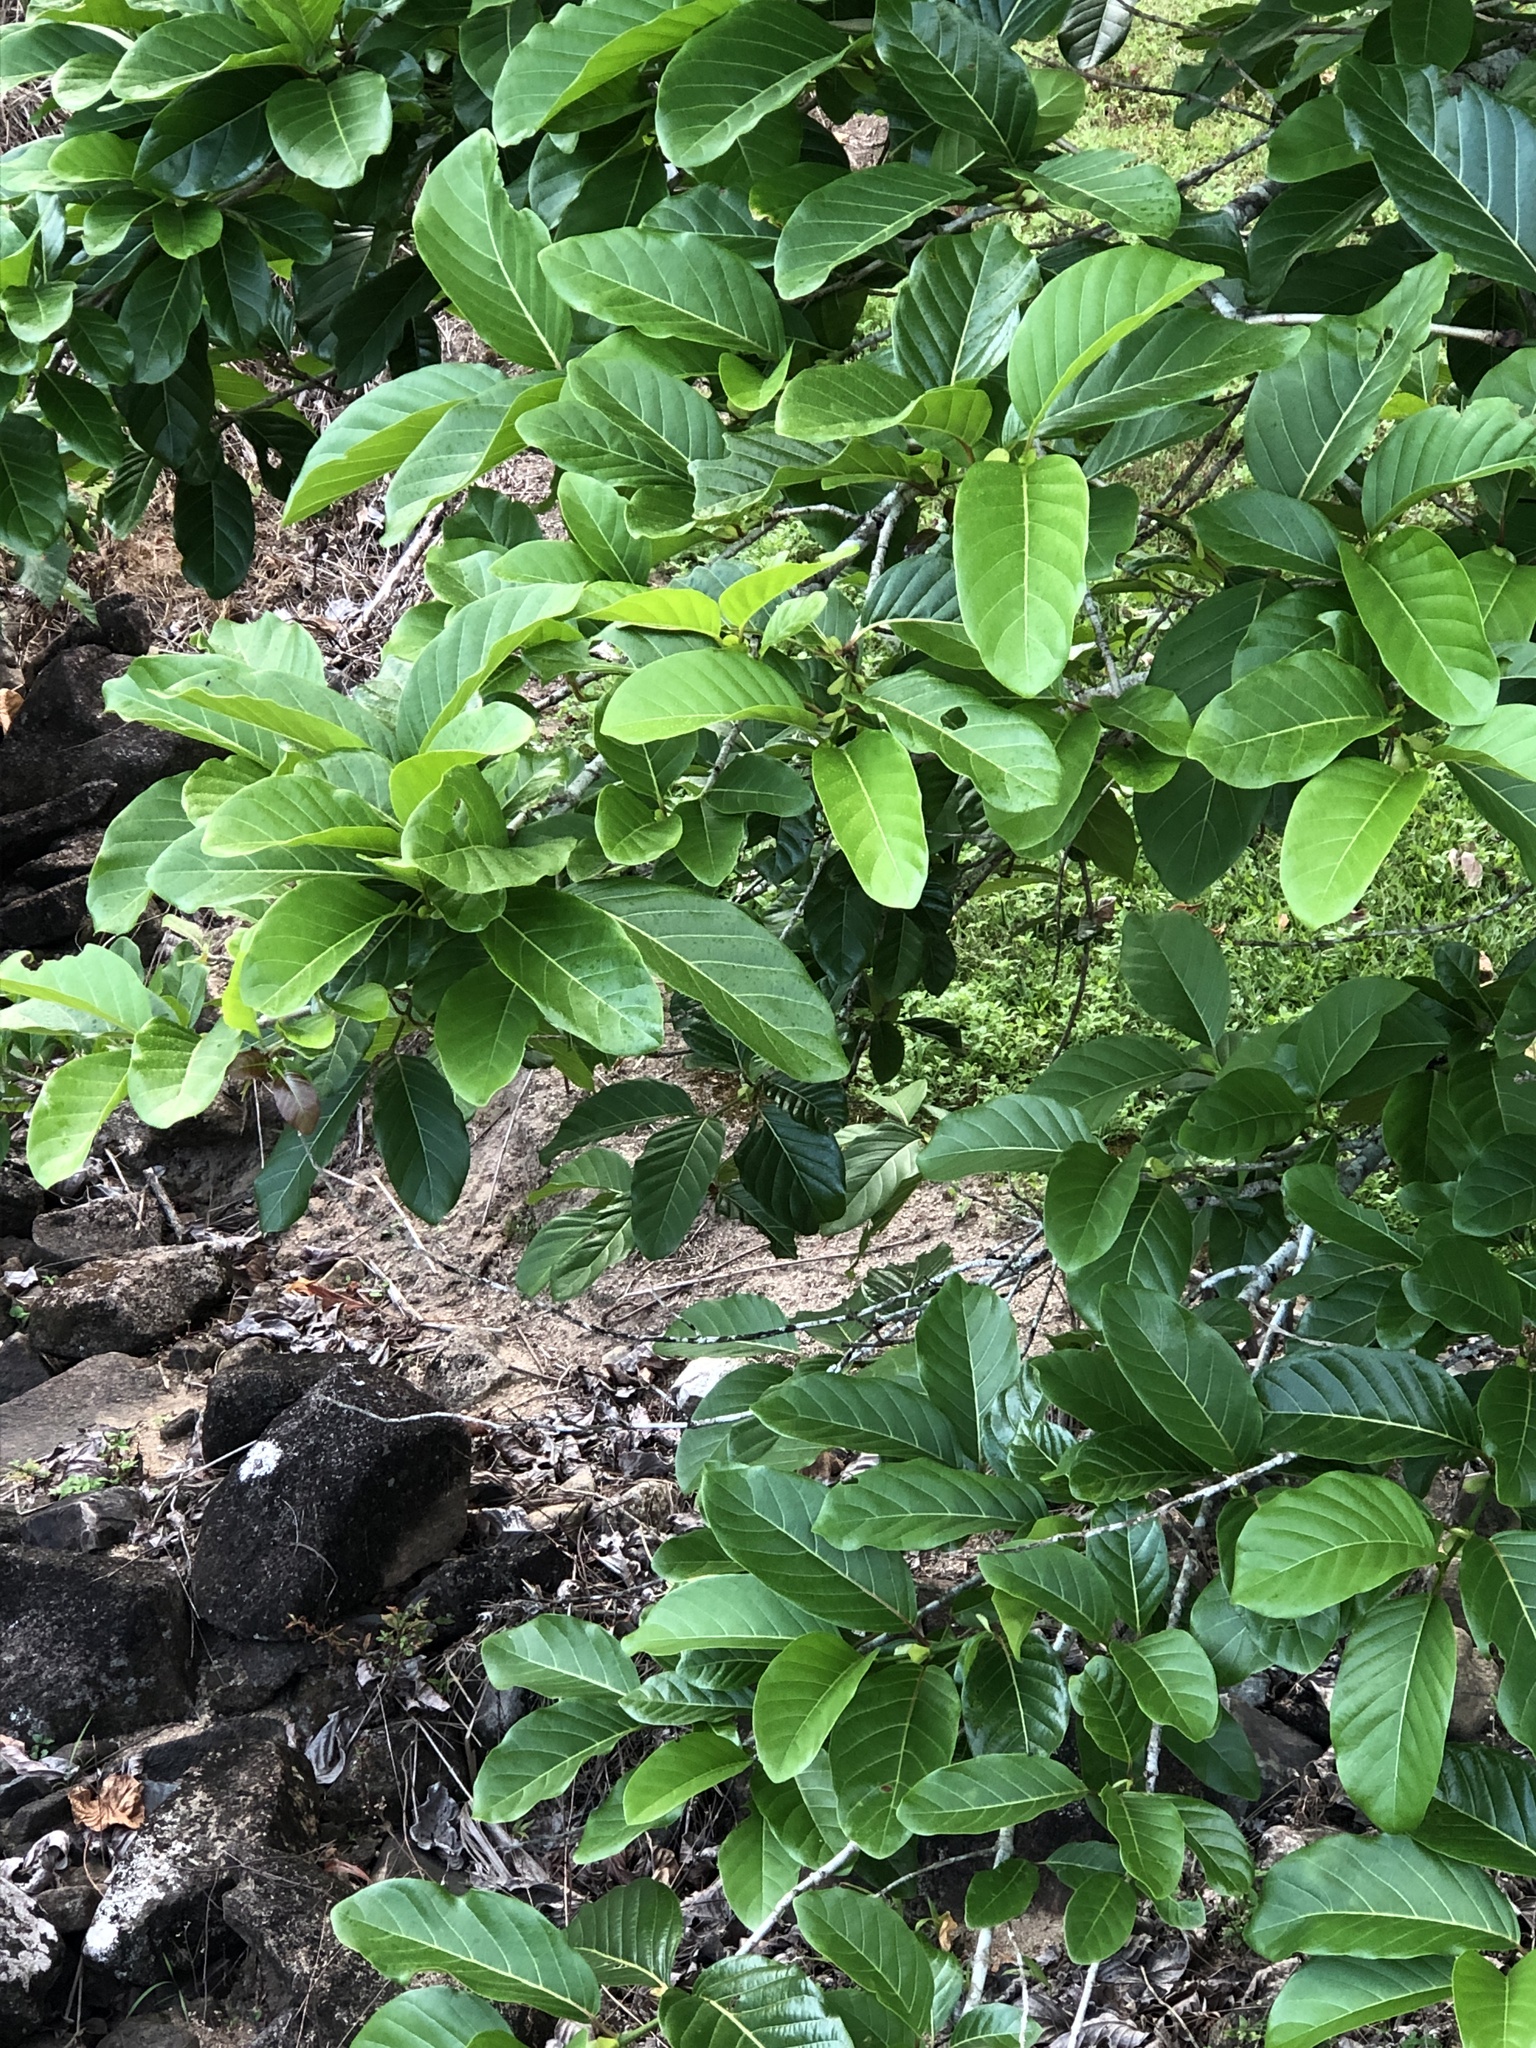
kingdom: Plantae
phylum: Tracheophyta
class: Magnoliopsida
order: Gentianales
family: Rubiaceae
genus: Nauclea
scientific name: Nauclea orientalis
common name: Leichhardt-pine
